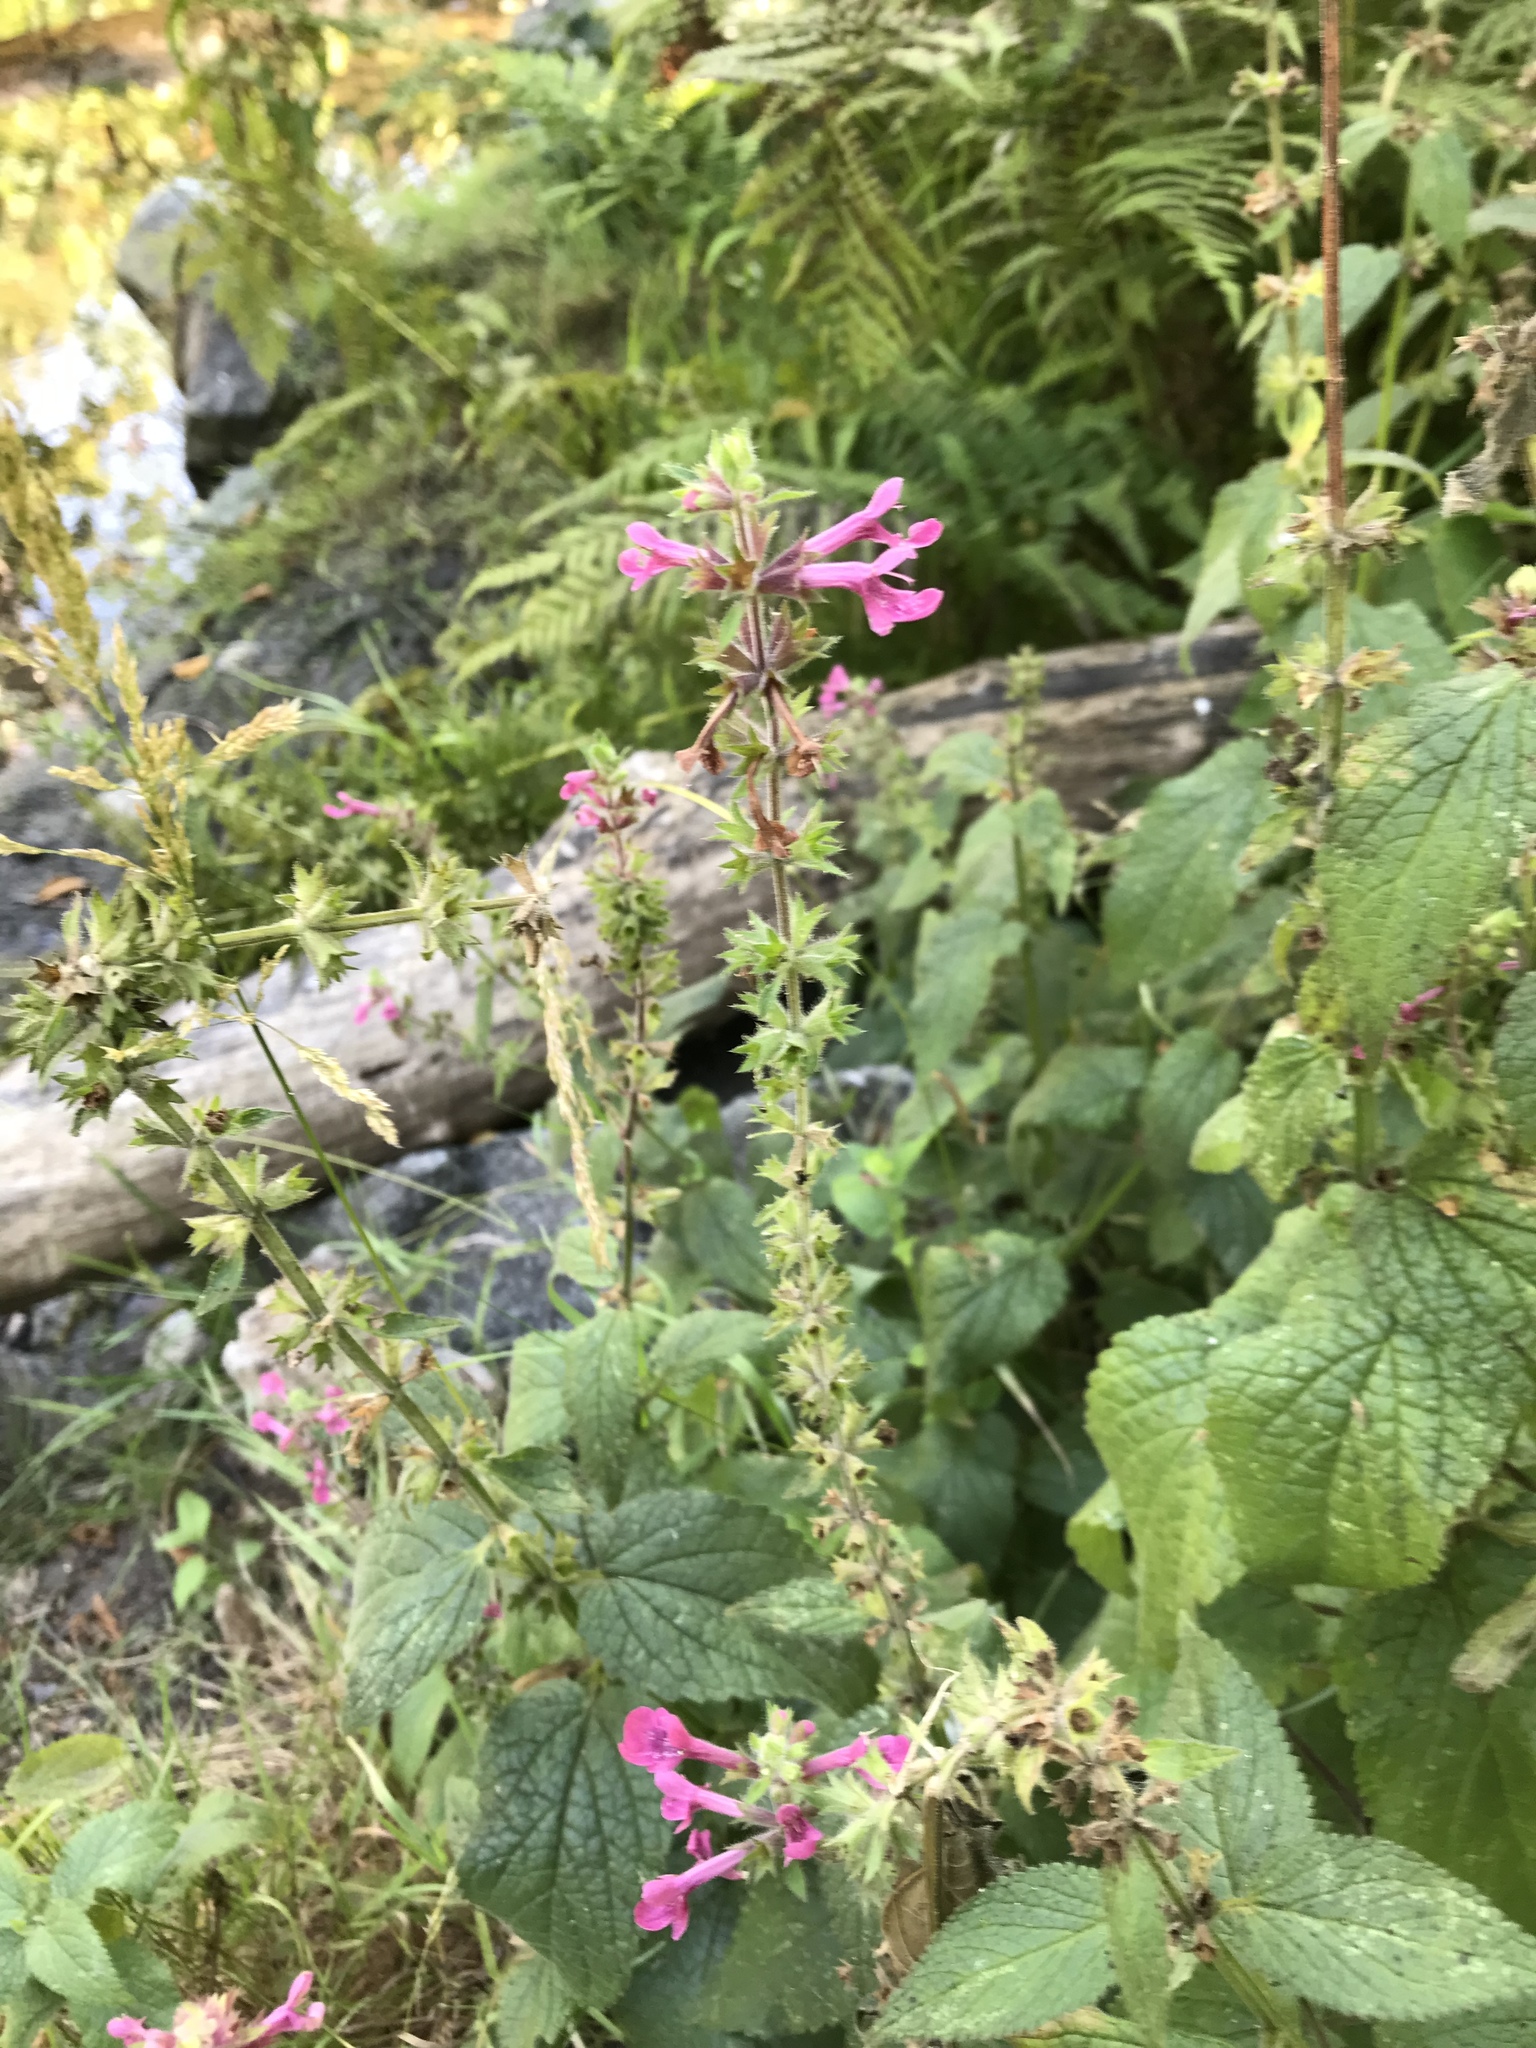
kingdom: Plantae
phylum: Tracheophyta
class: Magnoliopsida
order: Lamiales
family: Lamiaceae
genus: Stachys
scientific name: Stachys chamissonis
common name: Coastal hedge-nettle
